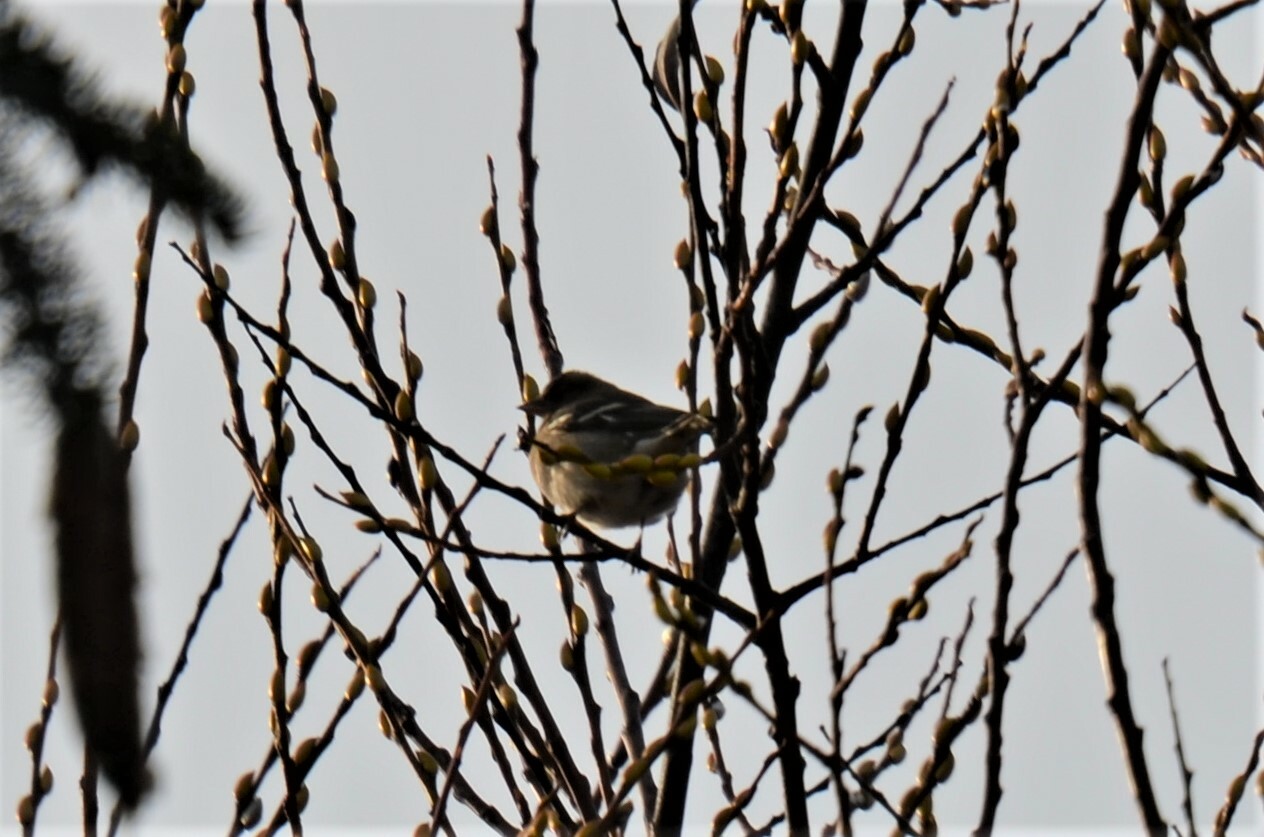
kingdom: Animalia
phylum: Chordata
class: Aves
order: Passeriformes
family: Fringillidae
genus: Fringilla
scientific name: Fringilla coelebs
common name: Common chaffinch
